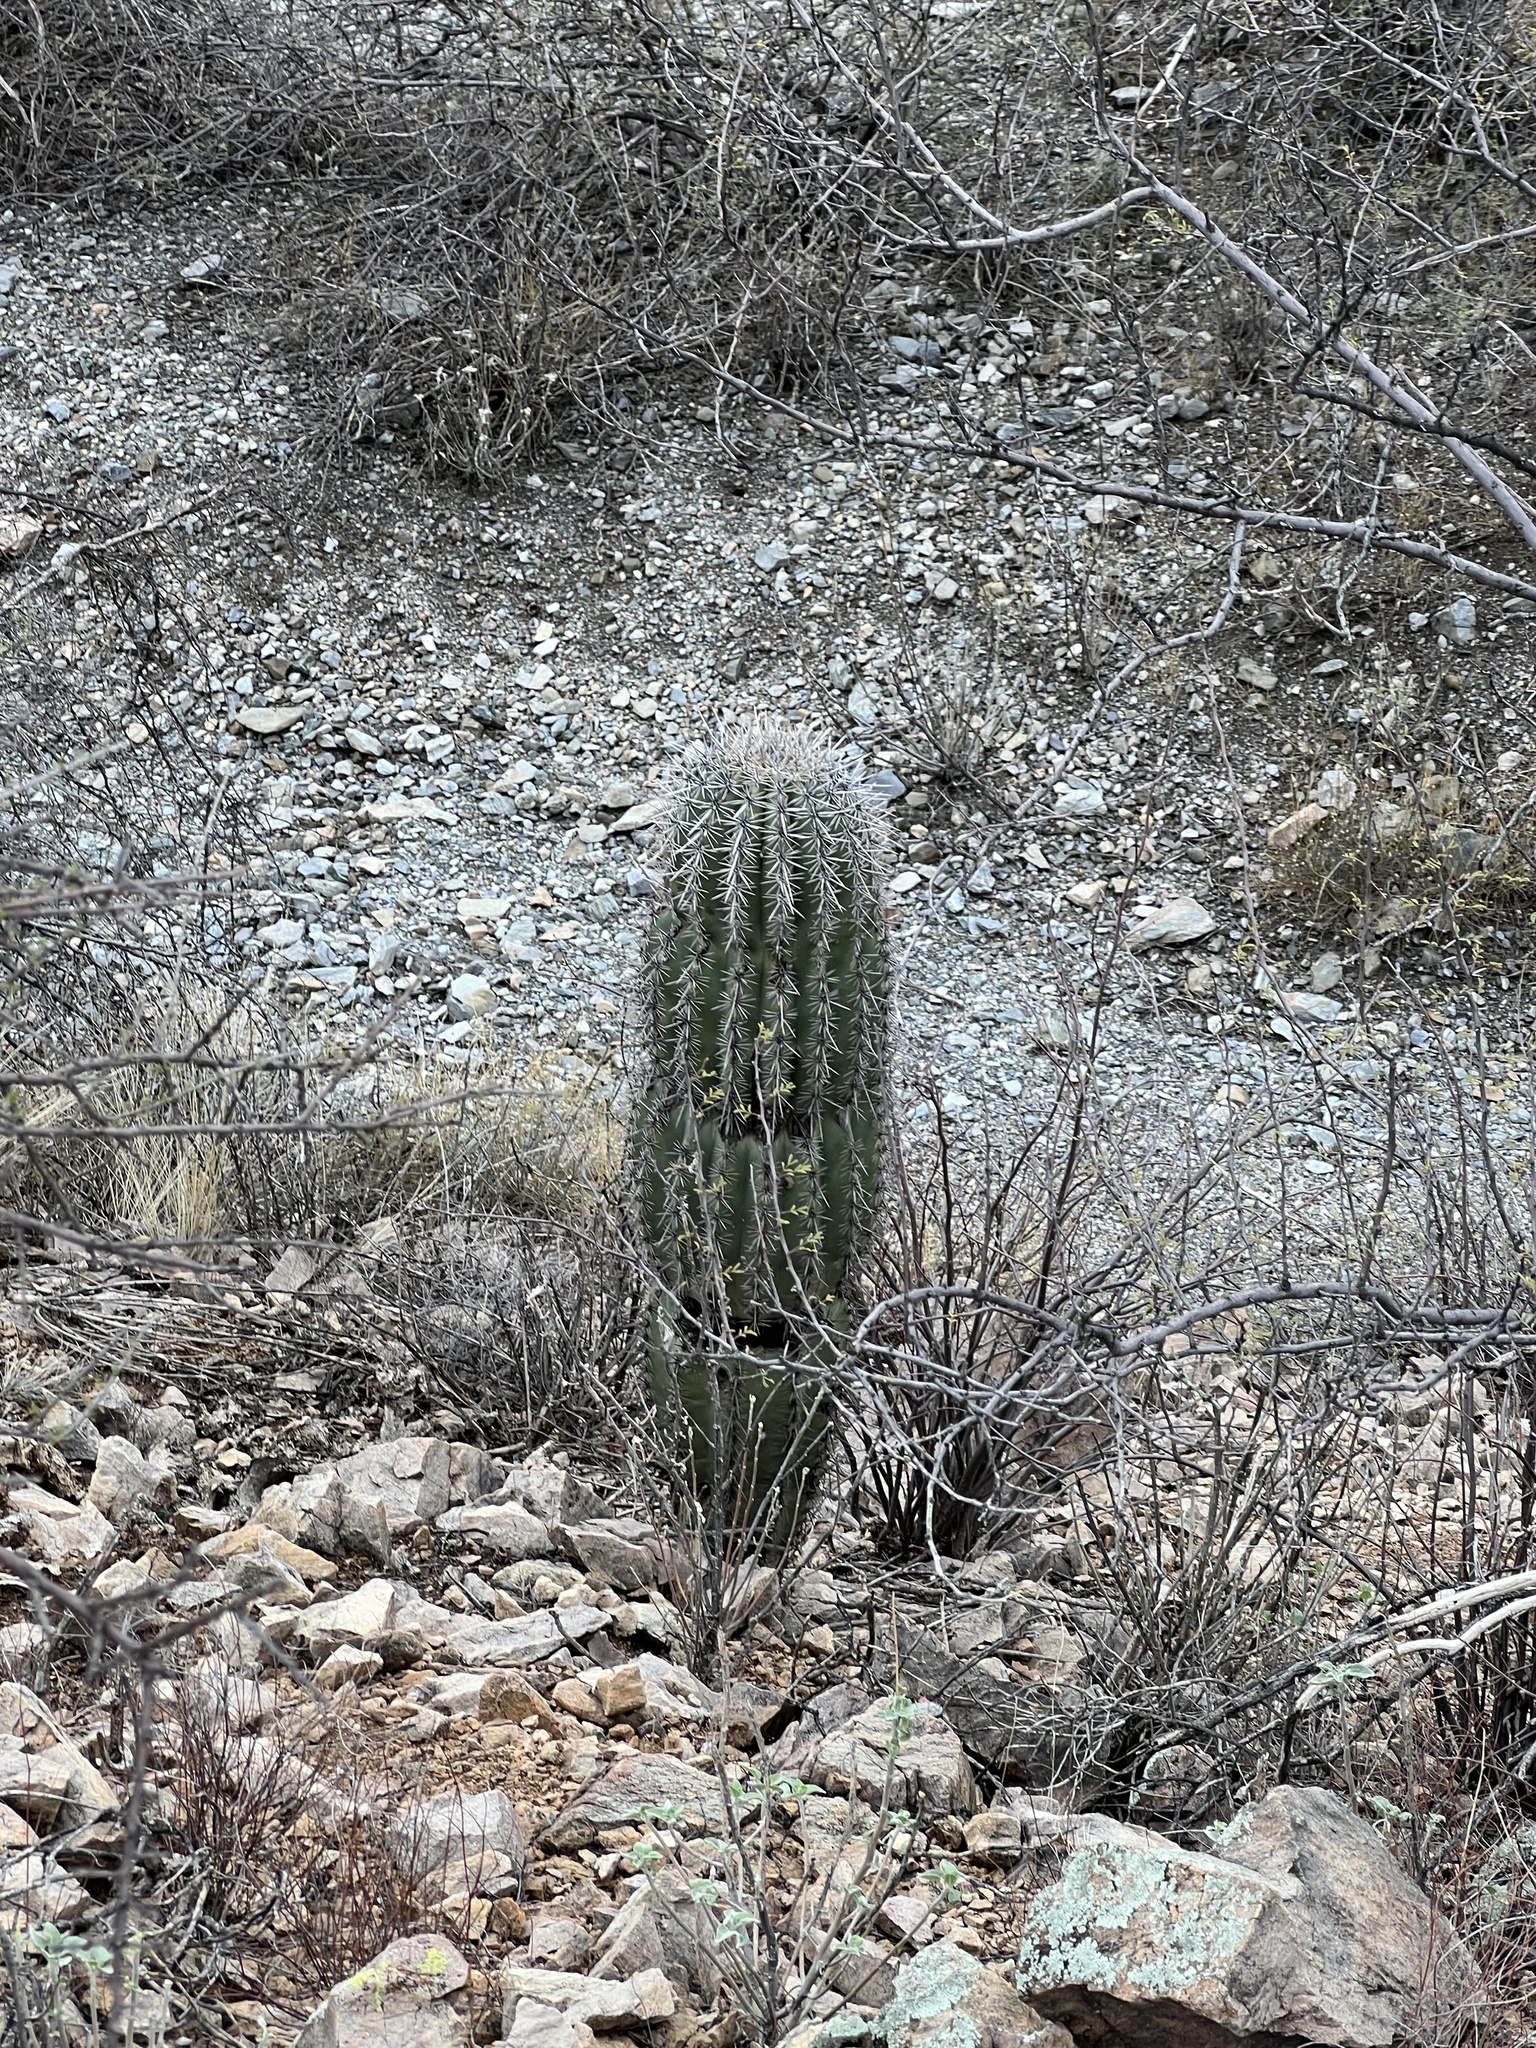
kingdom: Plantae
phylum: Tracheophyta
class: Magnoliopsida
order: Caryophyllales
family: Cactaceae
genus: Carnegiea
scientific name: Carnegiea gigantea
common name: Saguaro
